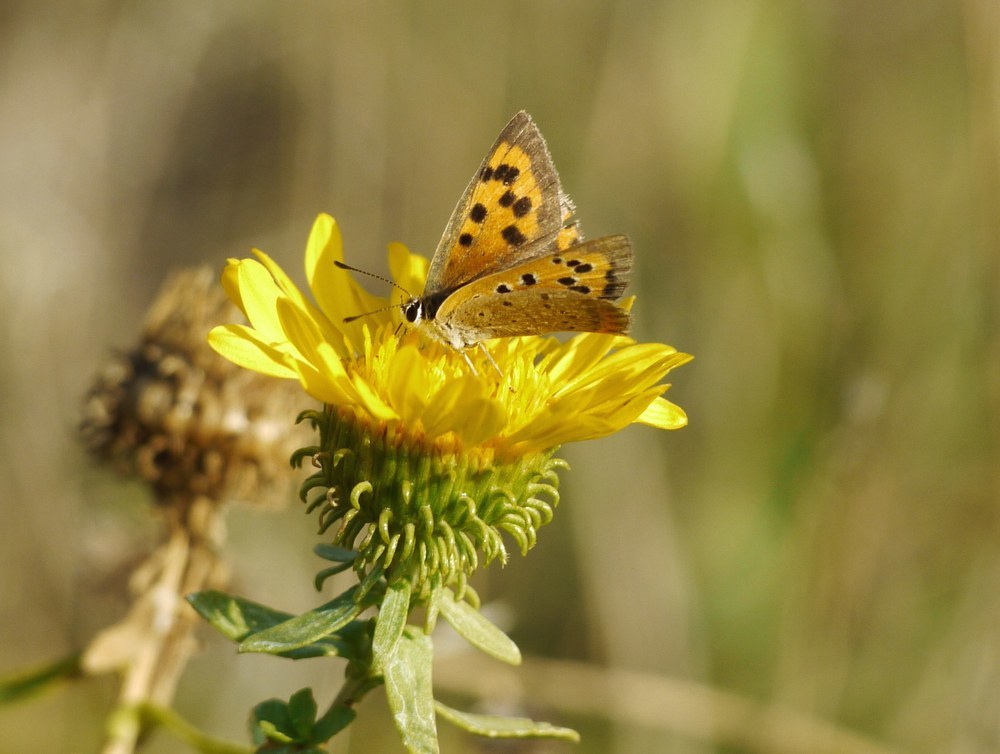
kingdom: Animalia
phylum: Arthropoda
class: Insecta
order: Lepidoptera
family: Lycaenidae
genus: Lycaena
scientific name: Lycaena phlaeas
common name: Small copper
